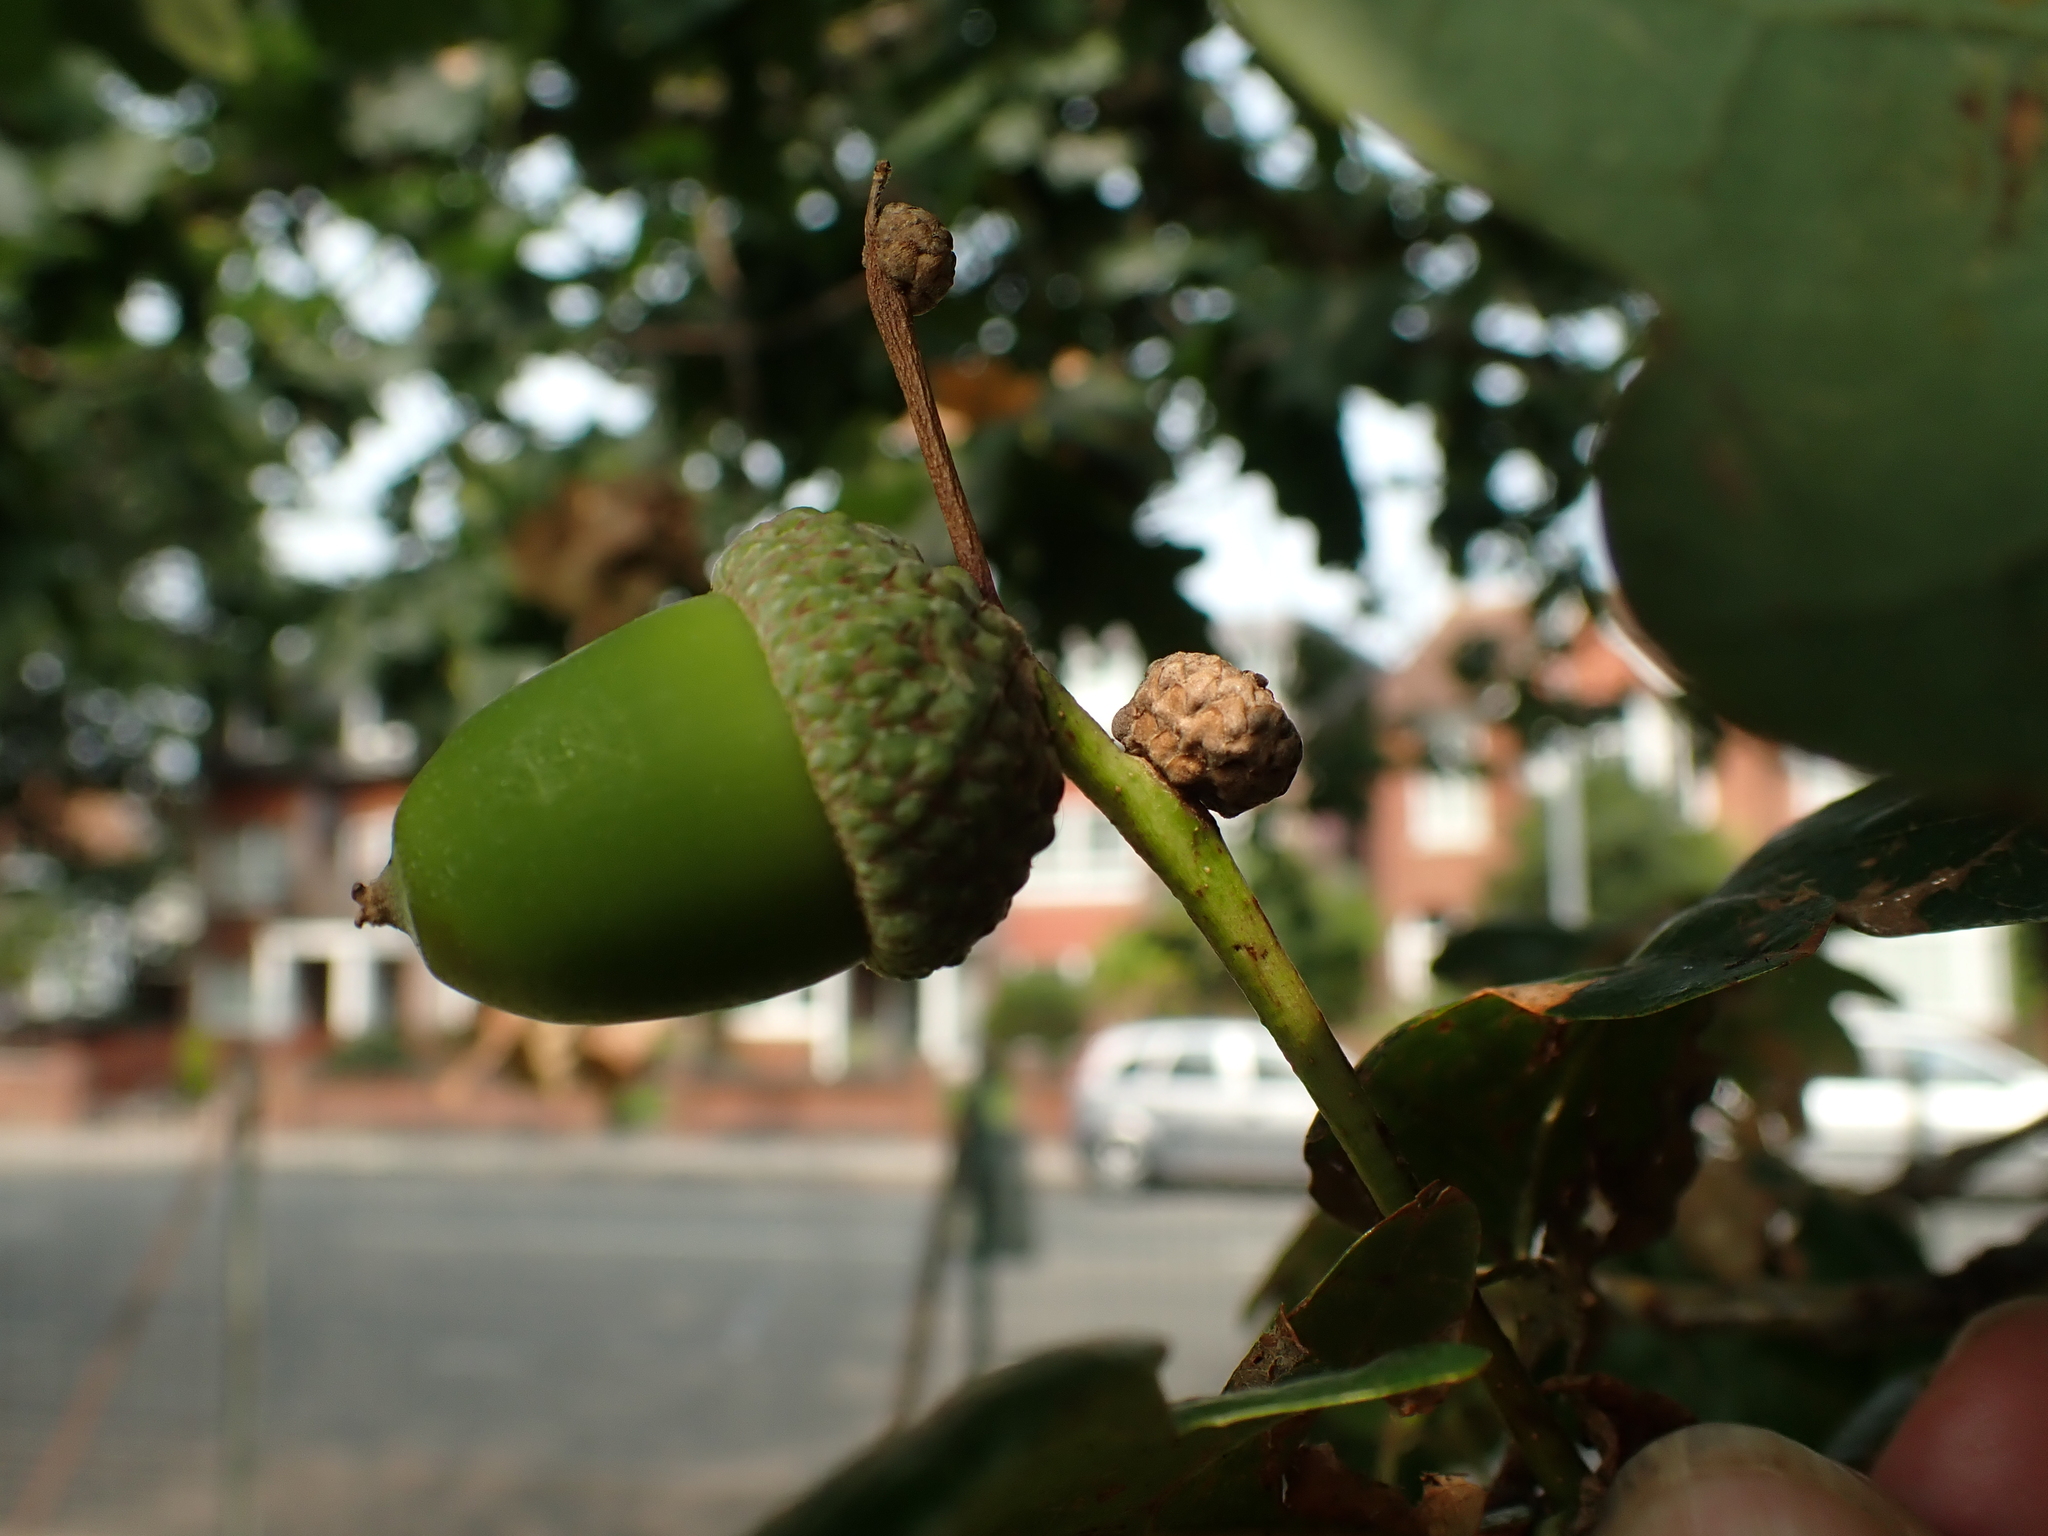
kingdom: Plantae
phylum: Tracheophyta
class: Magnoliopsida
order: Fagales
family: Fagaceae
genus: Quercus
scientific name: Quercus robur
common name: Pedunculate oak
